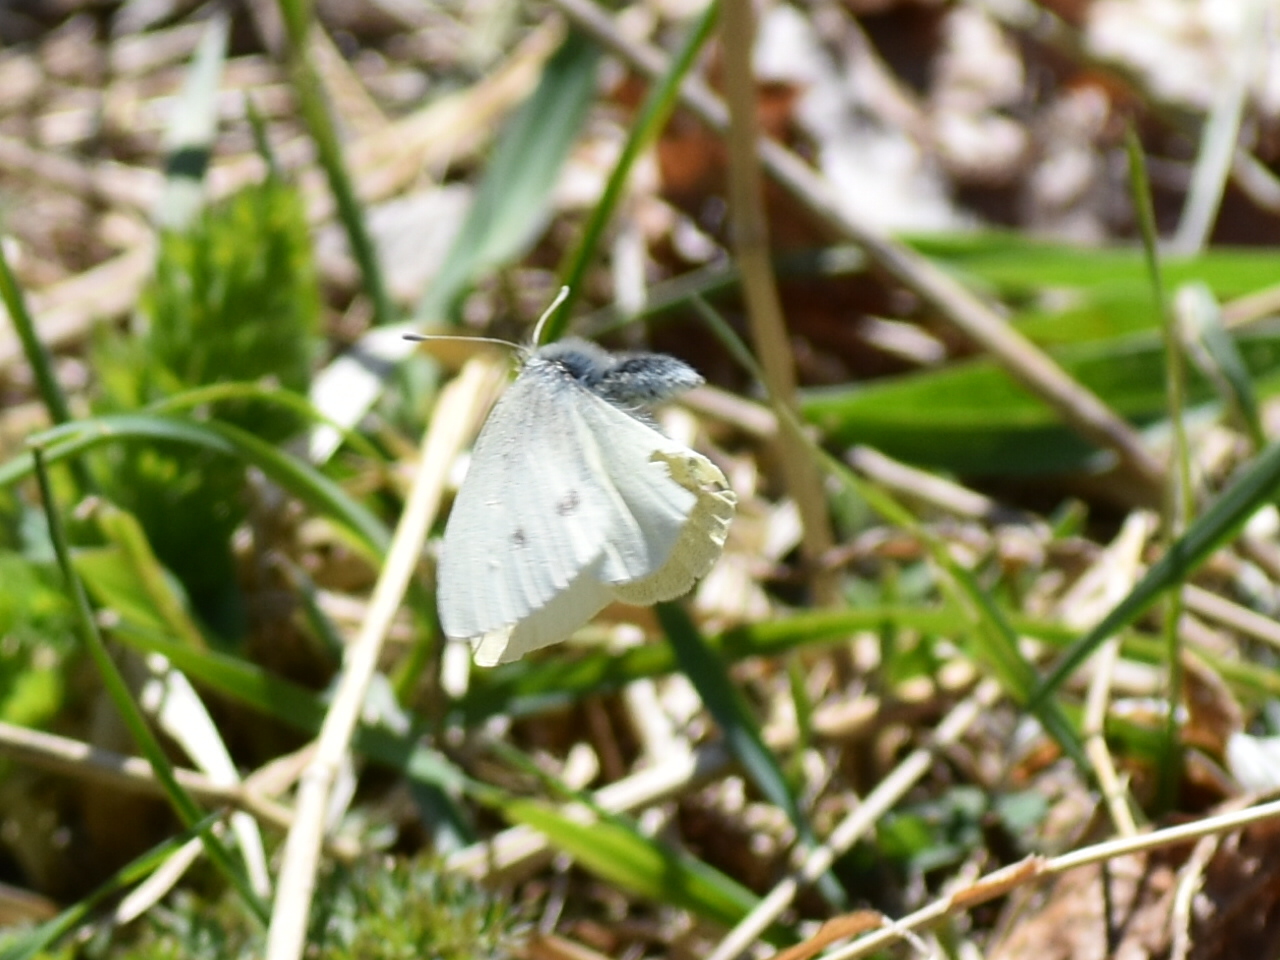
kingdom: Animalia
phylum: Arthropoda
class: Insecta
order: Lepidoptera
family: Pieridae
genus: Pieris
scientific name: Pieris rapae
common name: Small white
